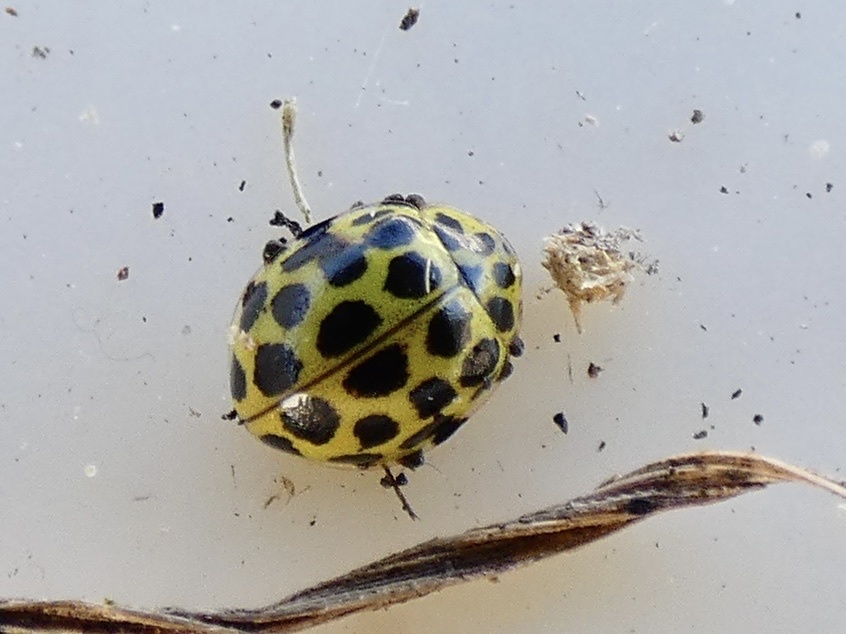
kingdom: Animalia
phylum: Arthropoda
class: Insecta
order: Coleoptera
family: Coccinellidae
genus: Psyllobora
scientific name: Psyllobora vigintiduopunctata
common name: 22-spot ladybird
